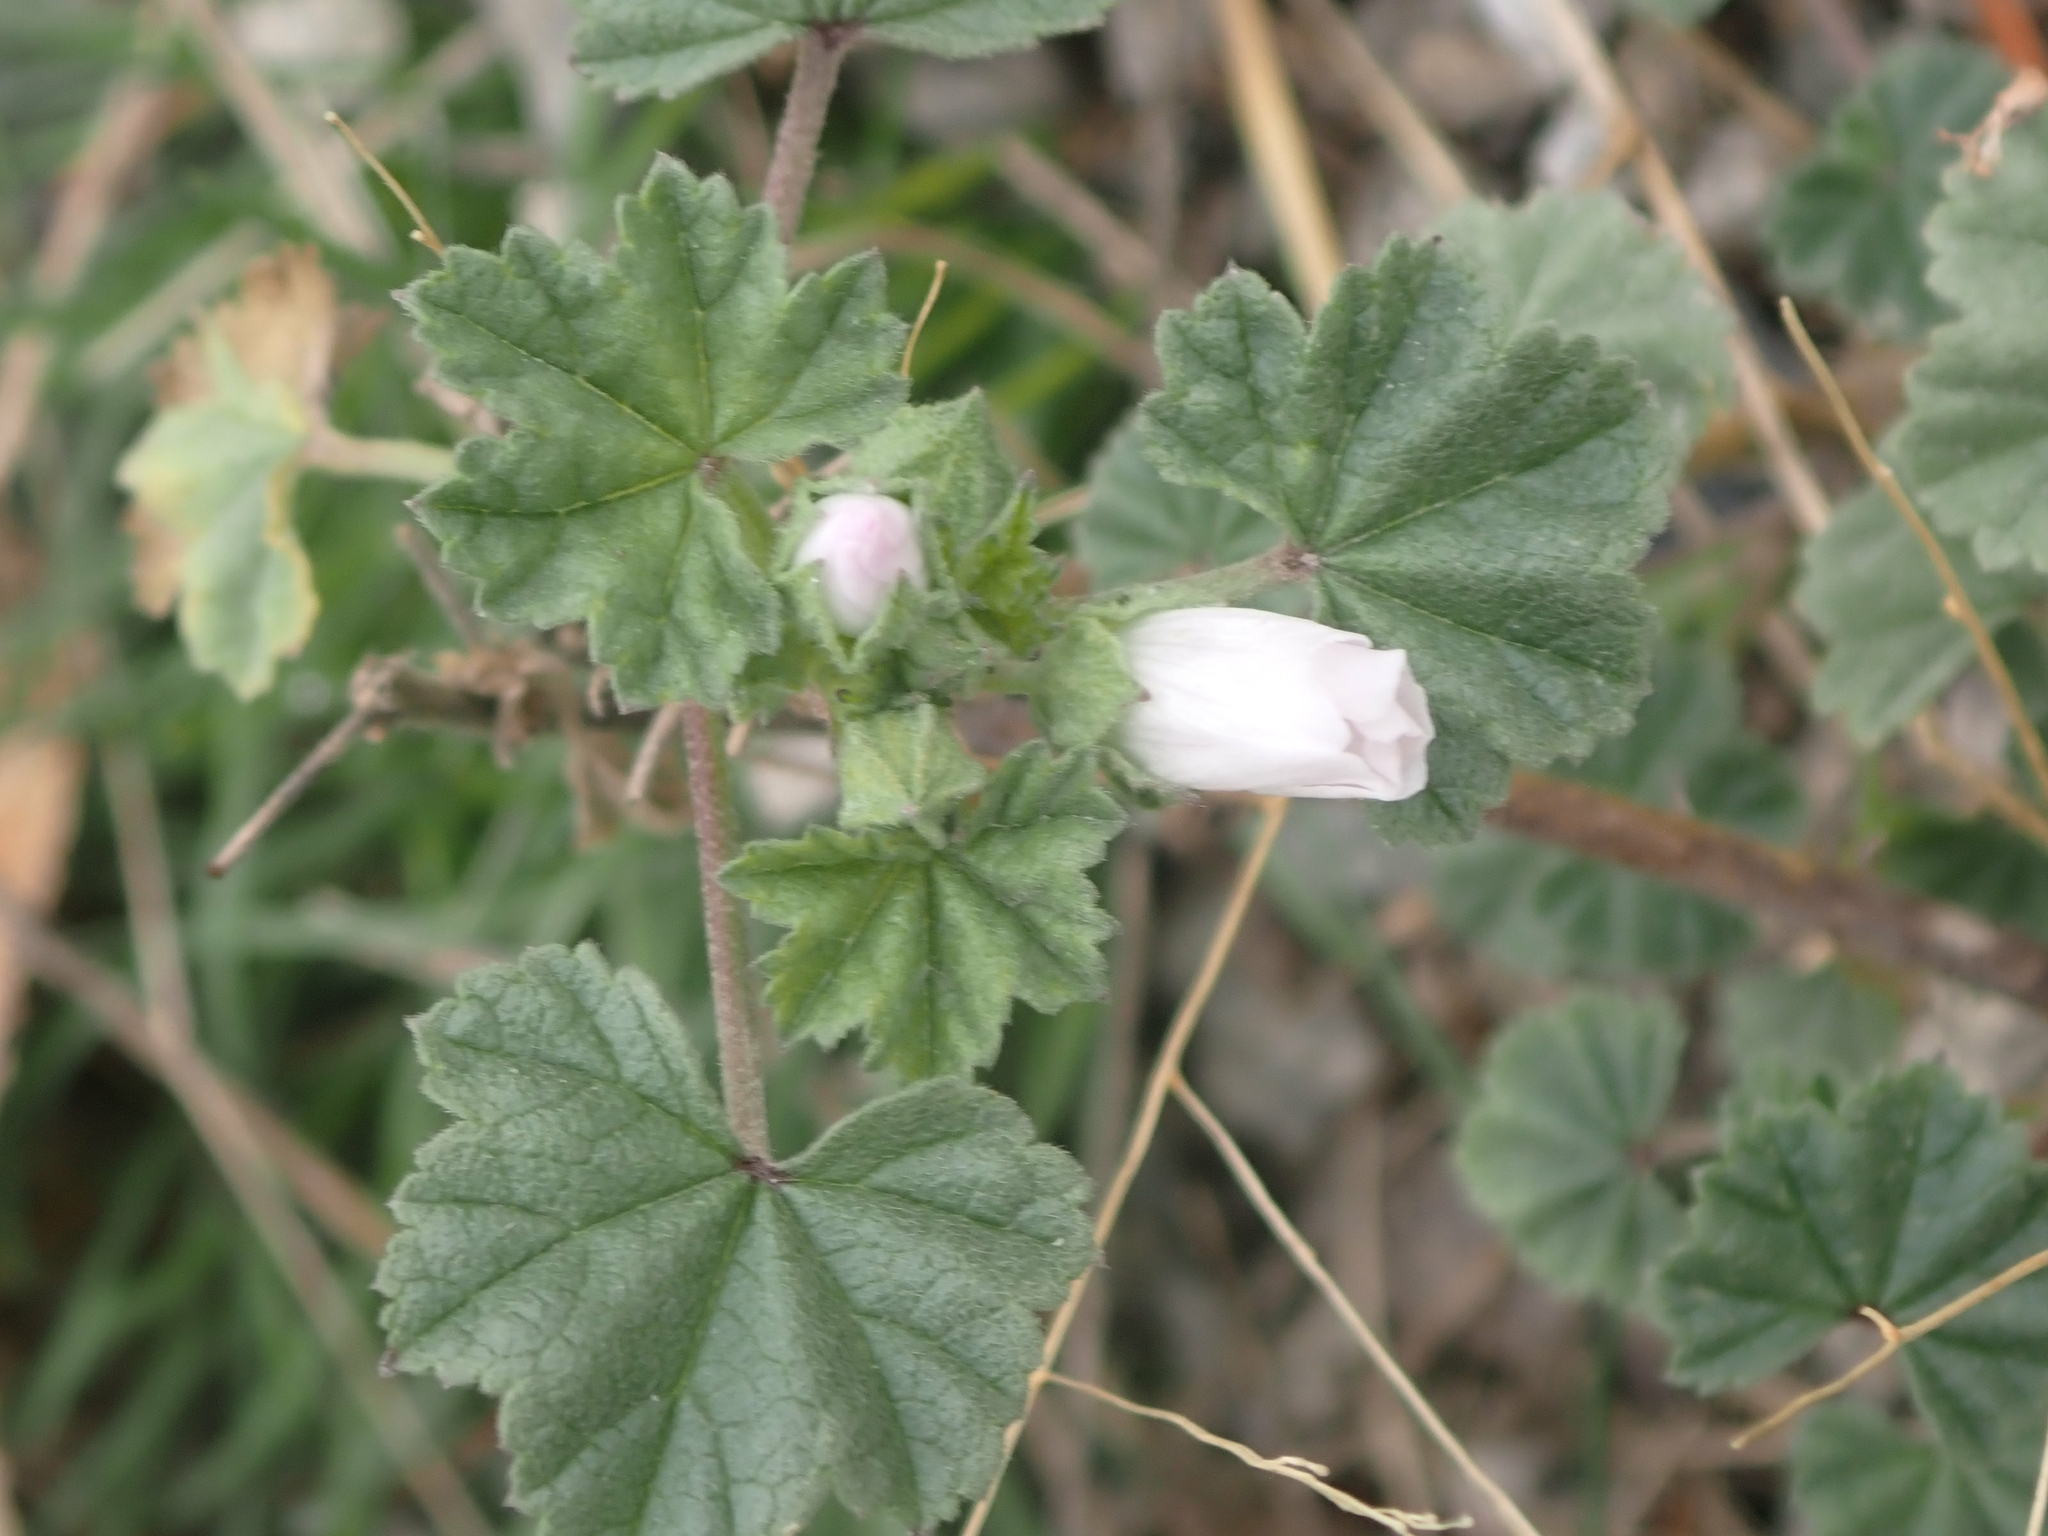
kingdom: Plantae
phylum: Tracheophyta
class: Magnoliopsida
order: Malvales
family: Malvaceae
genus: Malva
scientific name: Malva neglecta
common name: Common mallow
